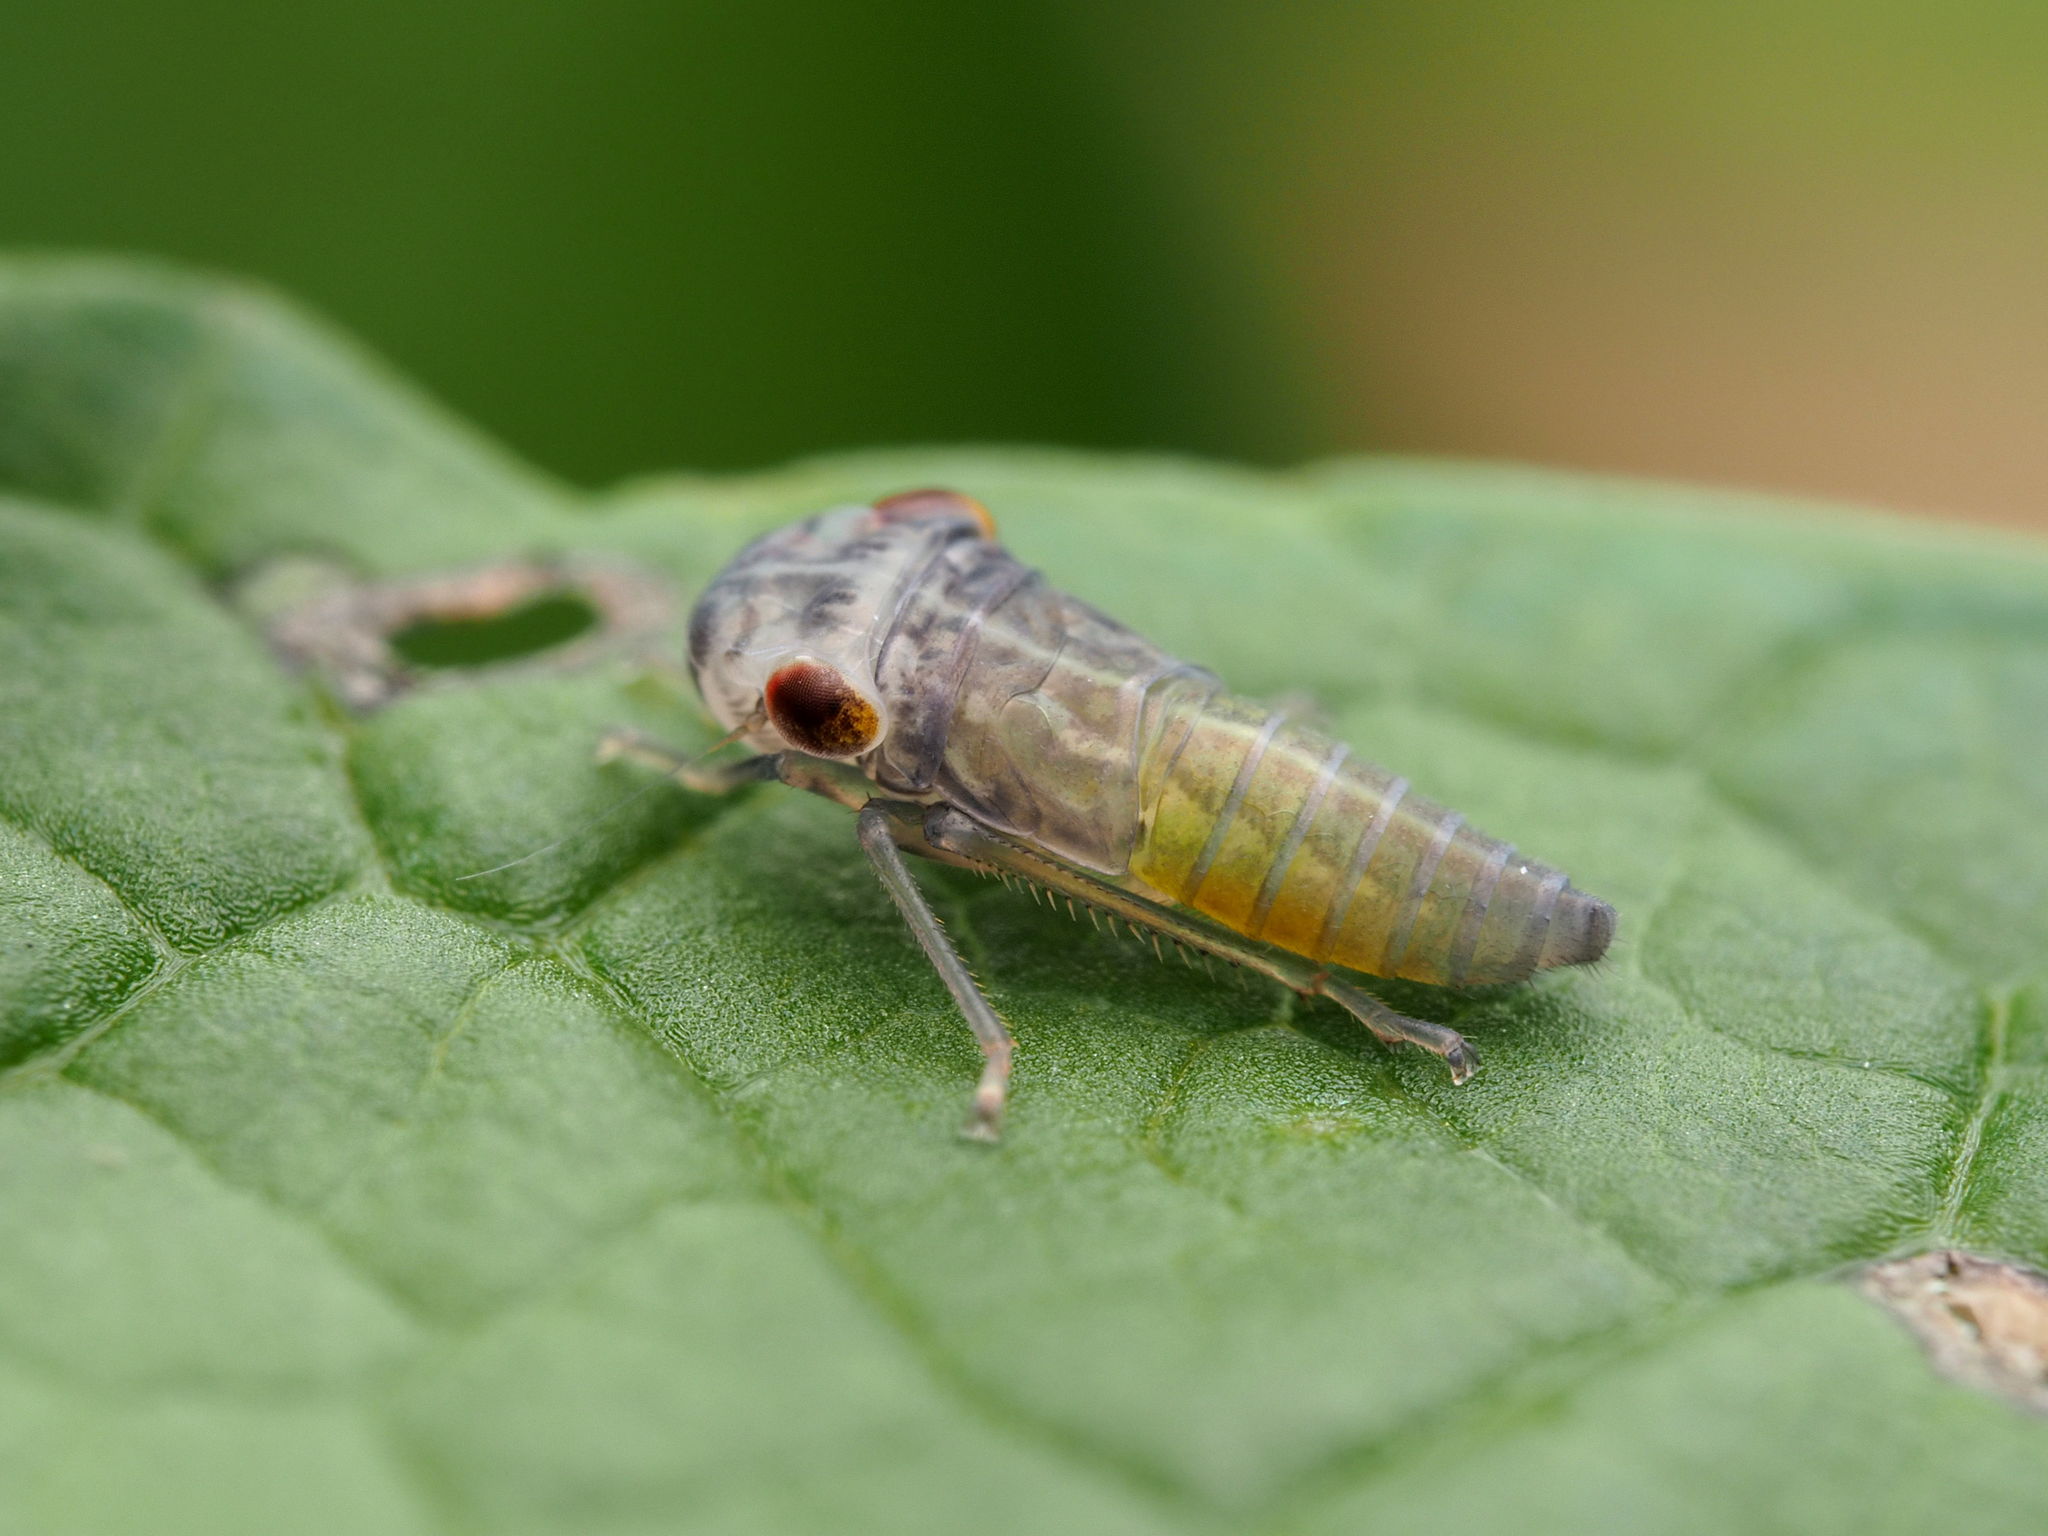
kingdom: Animalia
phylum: Arthropoda
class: Insecta
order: Hemiptera
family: Cicadellidae
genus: Oncometopia
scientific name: Oncometopia orbona
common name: Broad-headed sharpshooter
